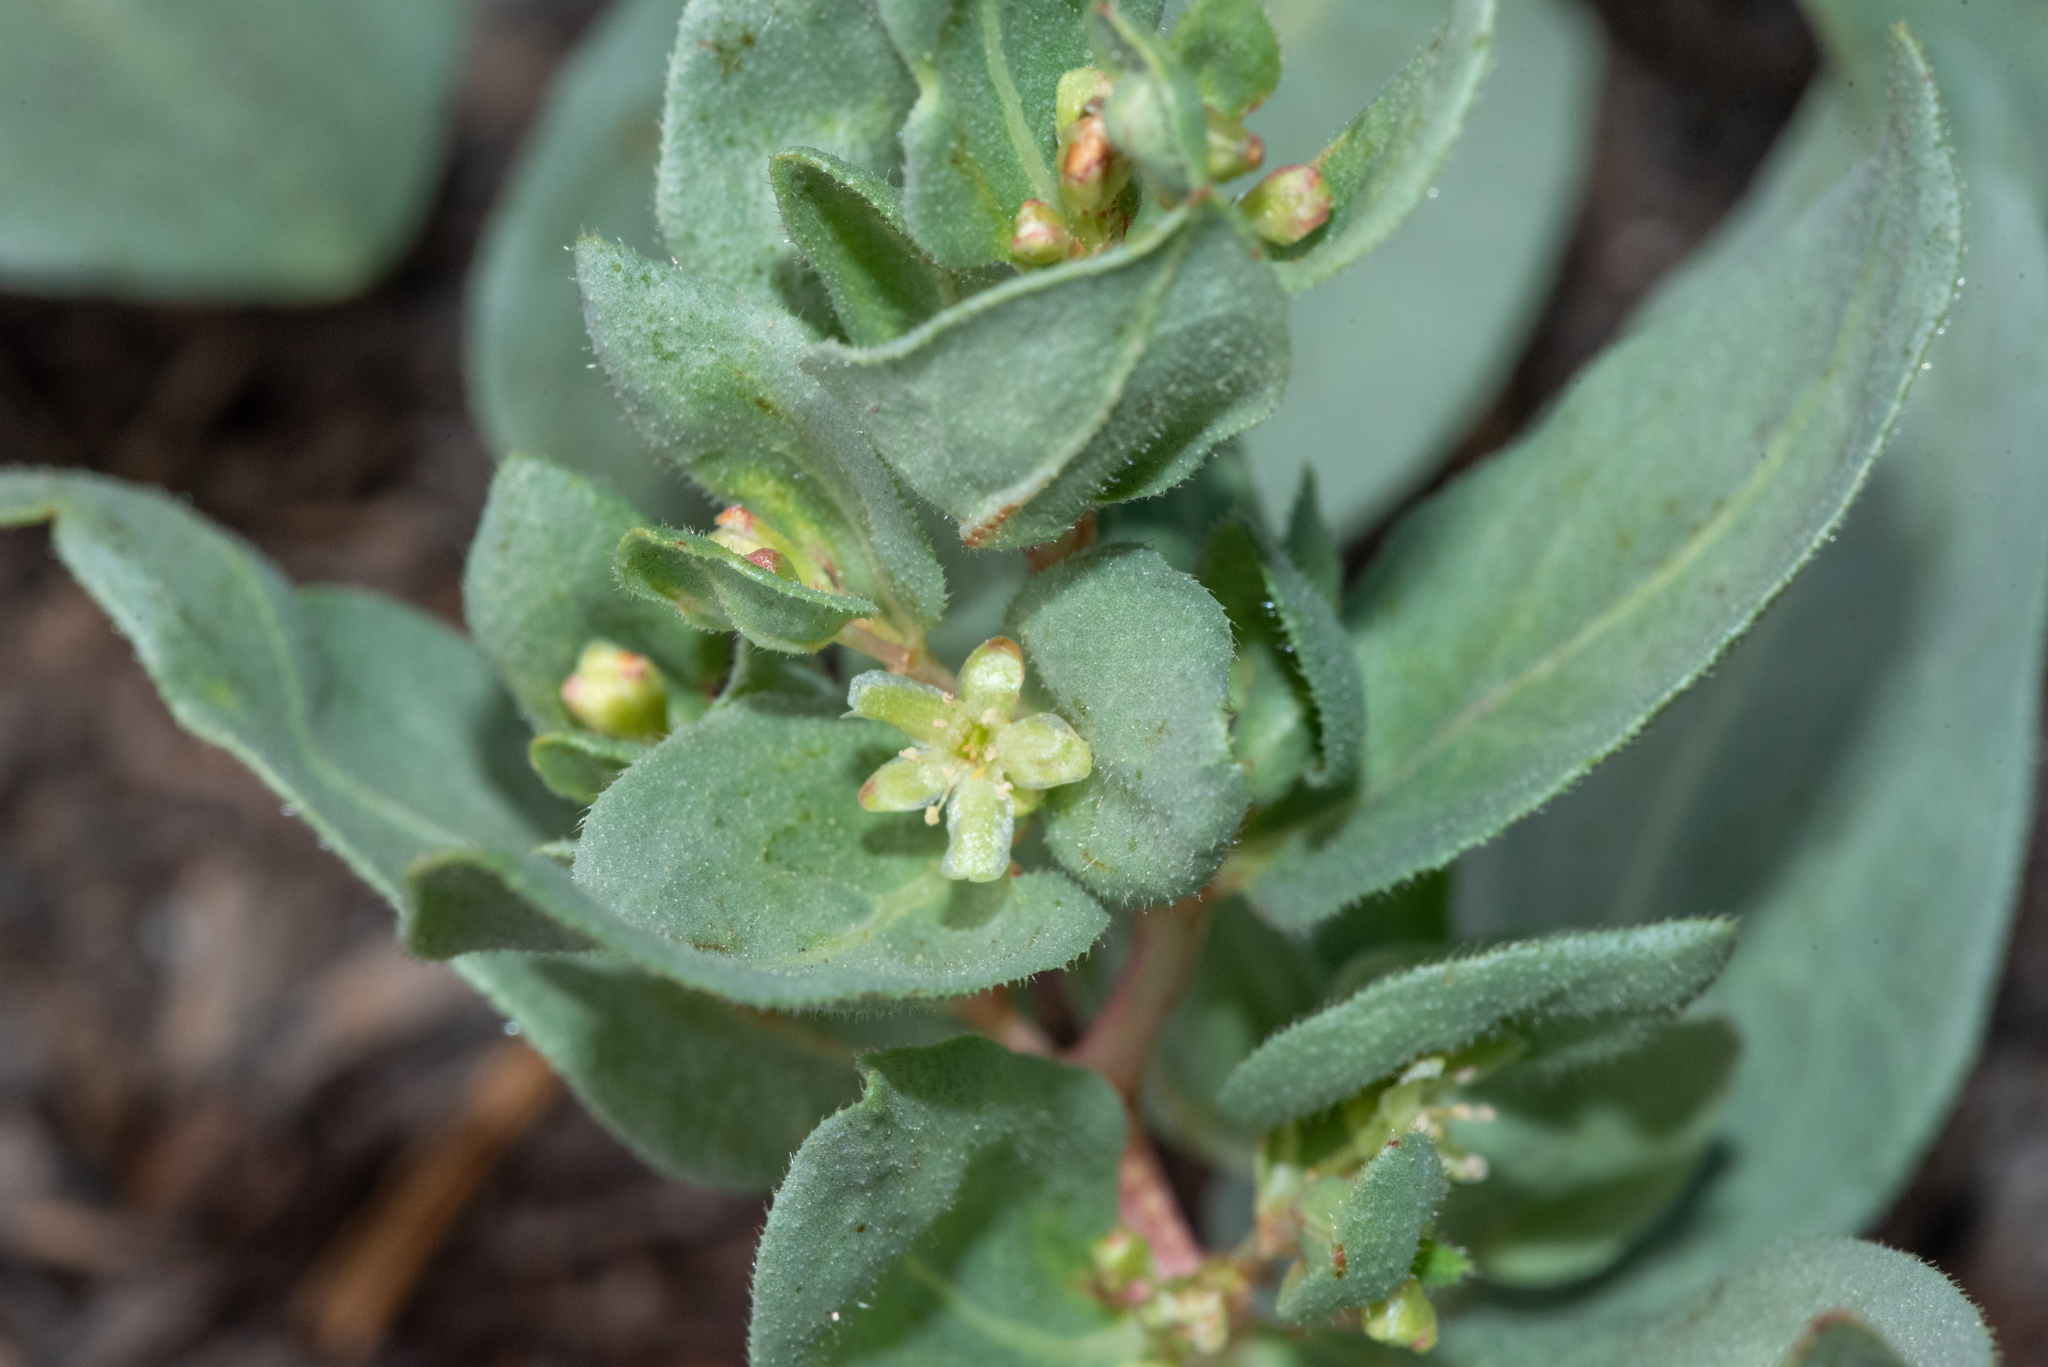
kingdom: Plantae
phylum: Tracheophyta
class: Magnoliopsida
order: Caryophyllales
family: Polygonaceae
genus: Koenigia
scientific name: Koenigia davisiae
